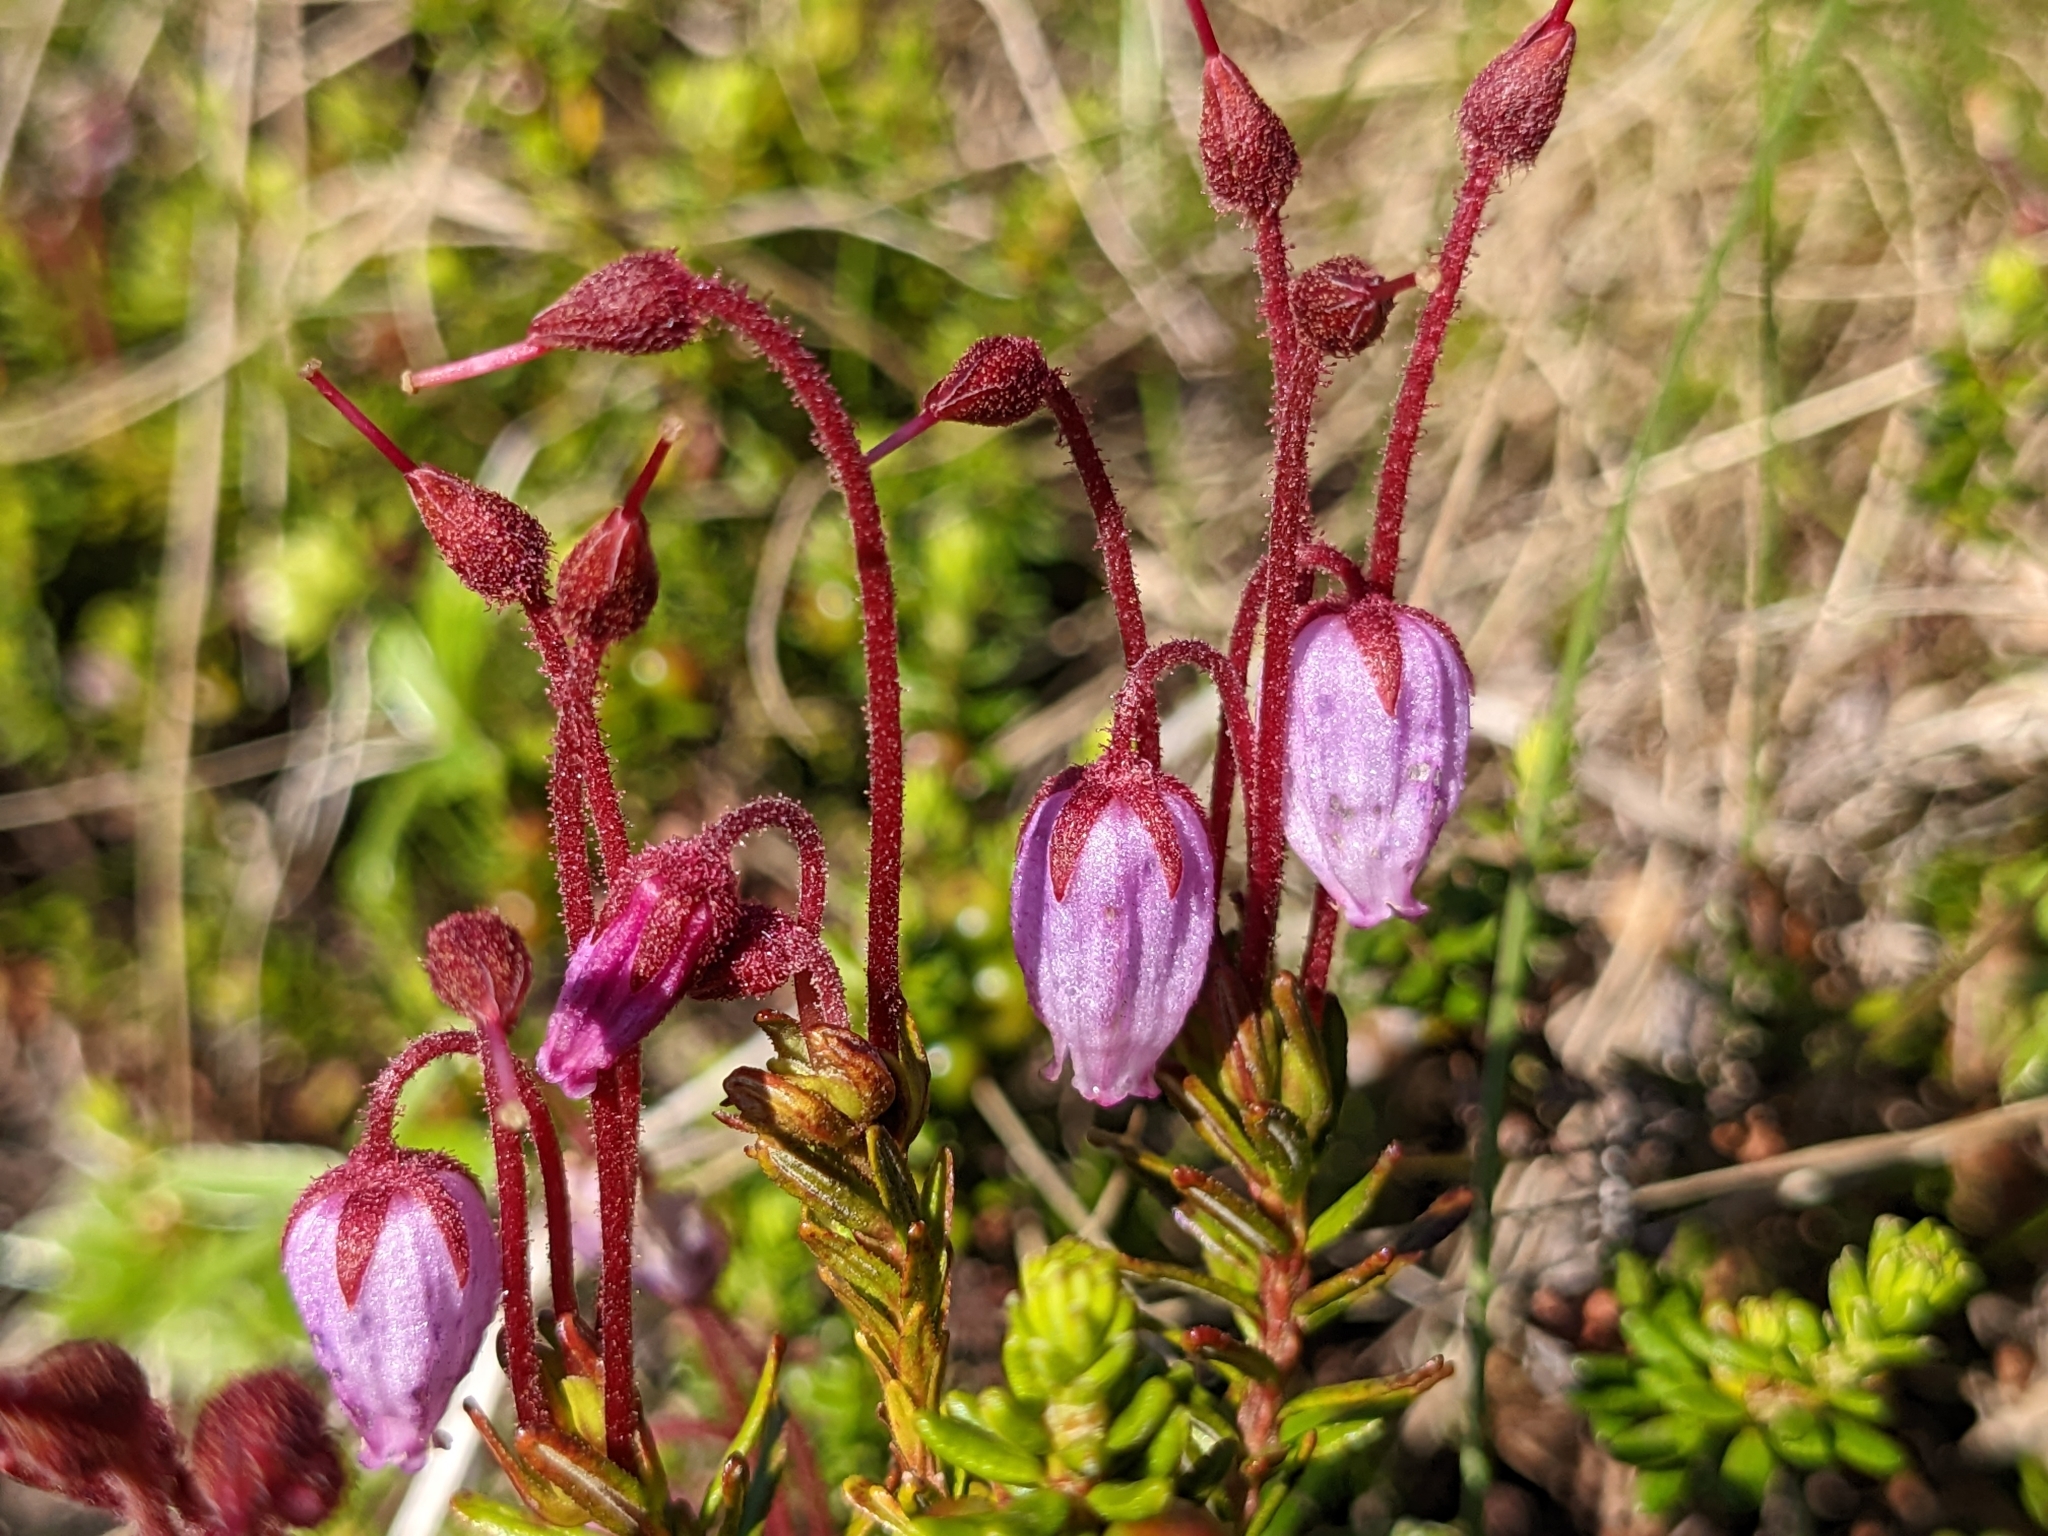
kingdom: Plantae
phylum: Tracheophyta
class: Magnoliopsida
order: Ericales
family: Ericaceae
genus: Phyllodoce
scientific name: Phyllodoce caerulea
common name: Blue heath
